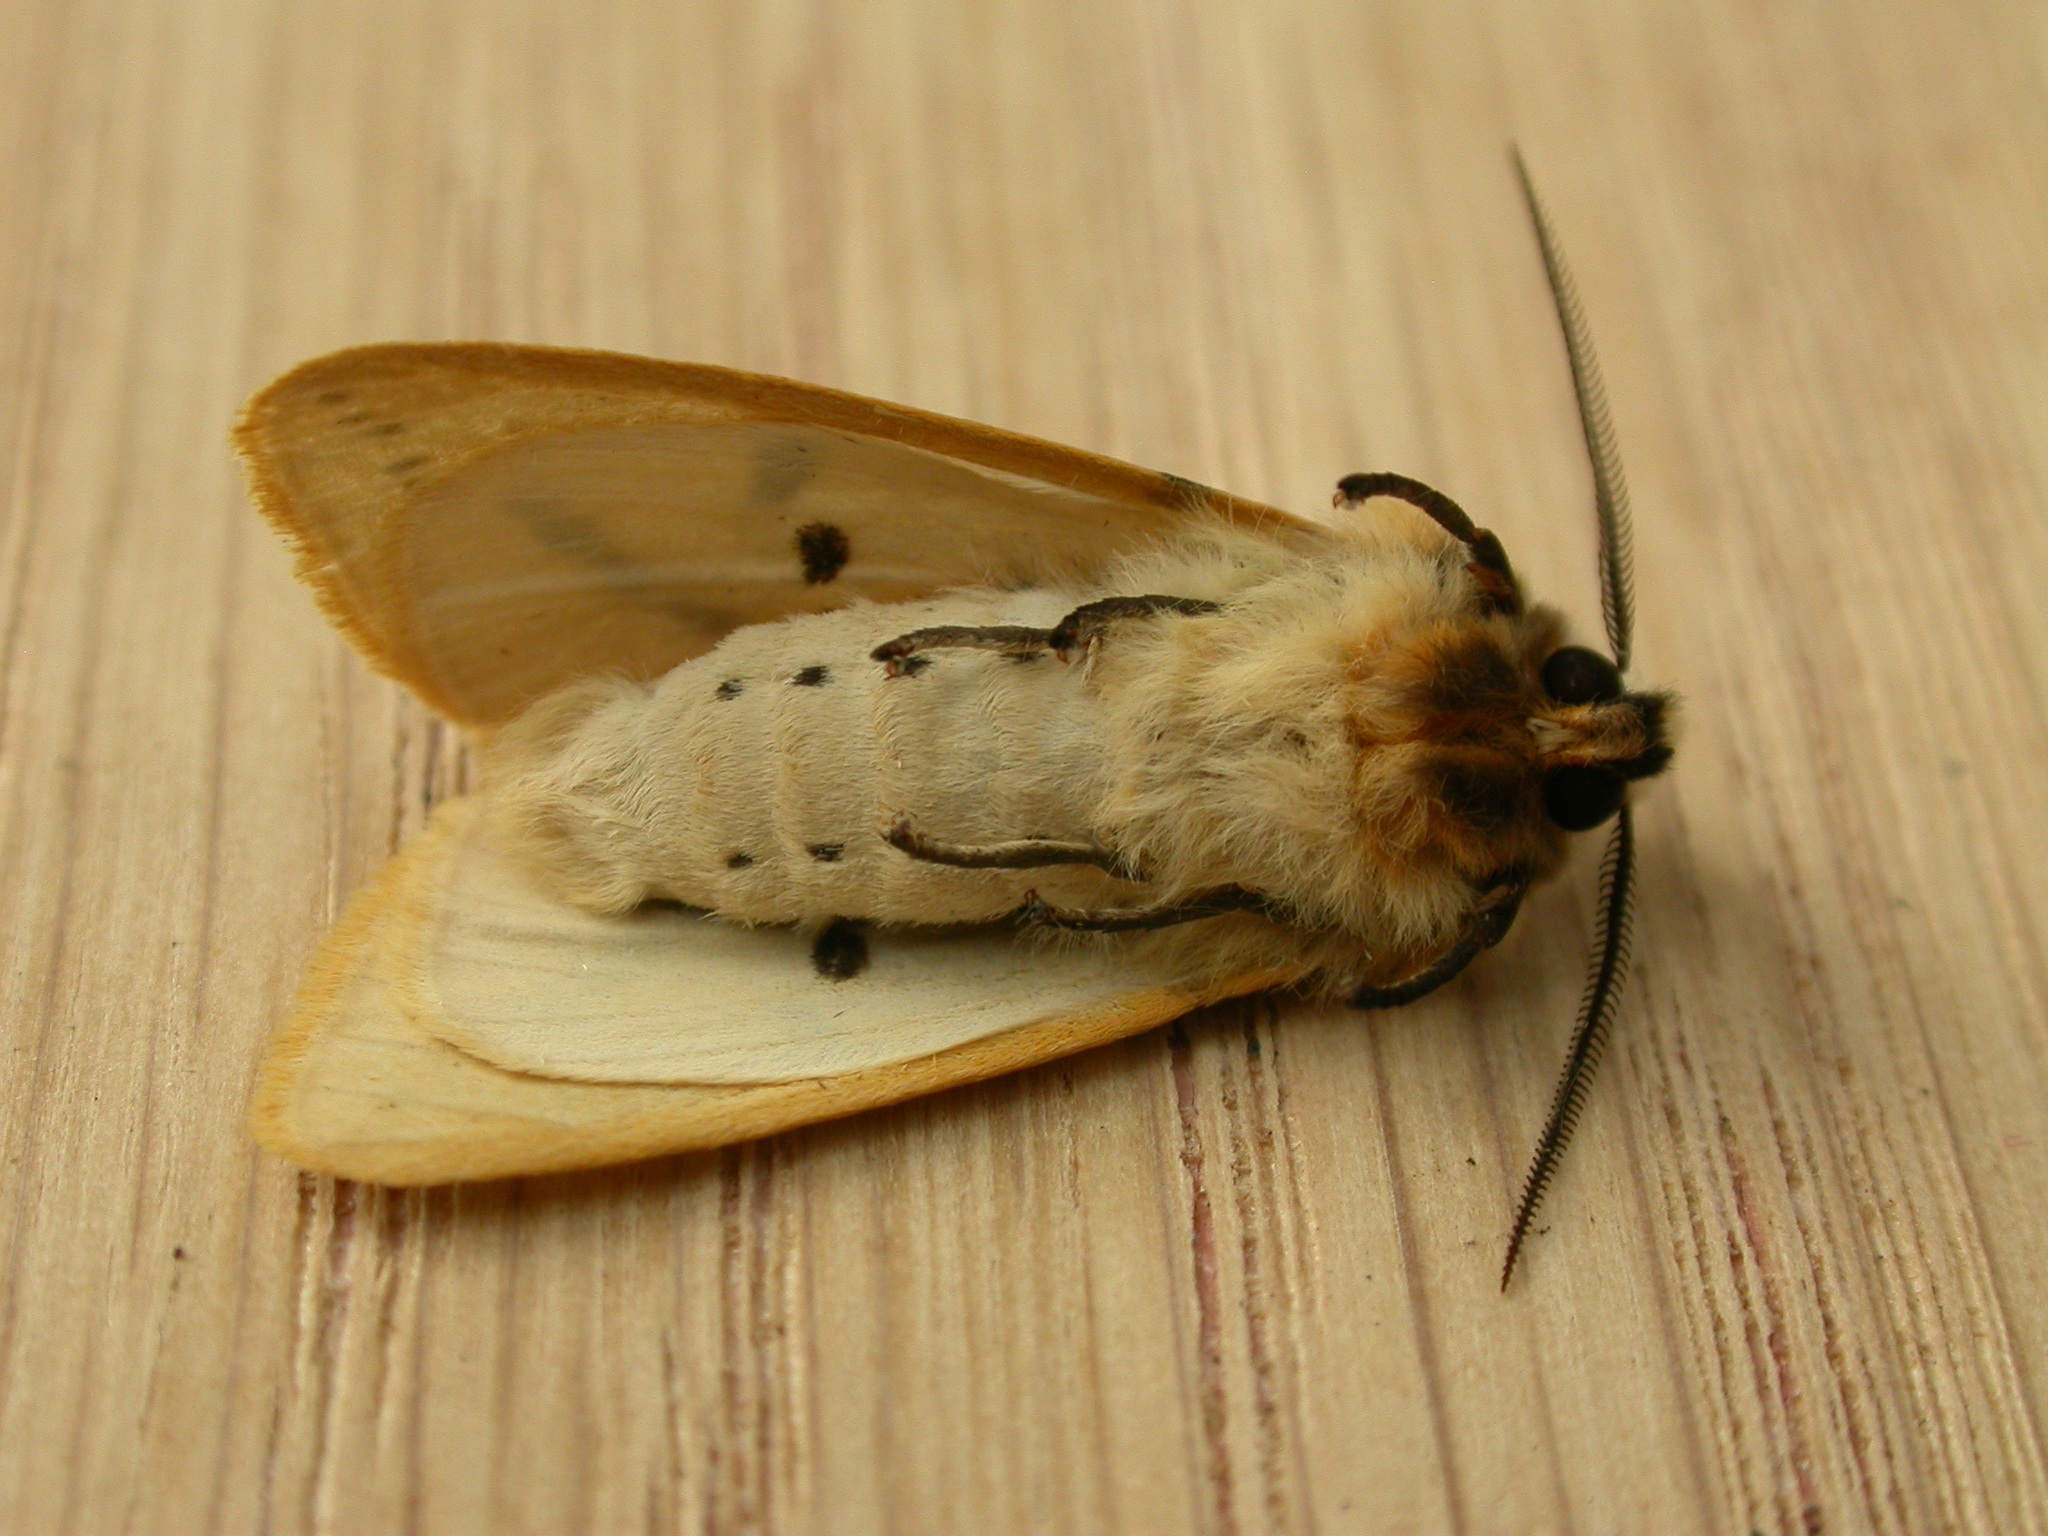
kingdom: Animalia
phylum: Arthropoda
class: Insecta
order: Lepidoptera
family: Erebidae
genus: Spilarctia
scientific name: Spilarctia lutea
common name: Buff ermine
